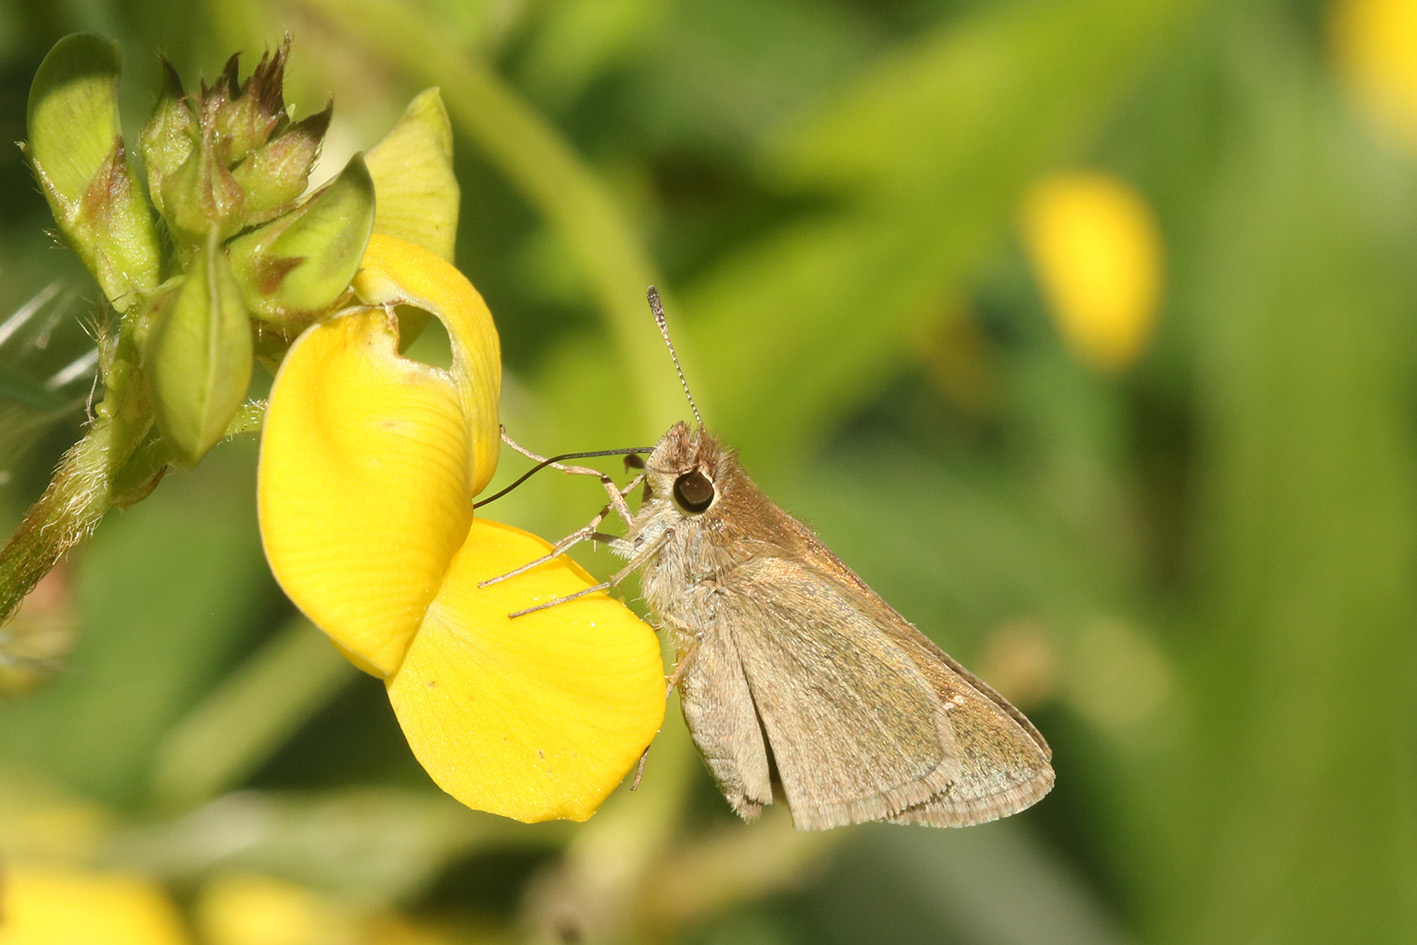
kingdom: Animalia
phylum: Arthropoda
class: Insecta
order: Lepidoptera
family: Hesperiidae
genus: Lerodea
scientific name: Lerodea eufala
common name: Eufala skipper
